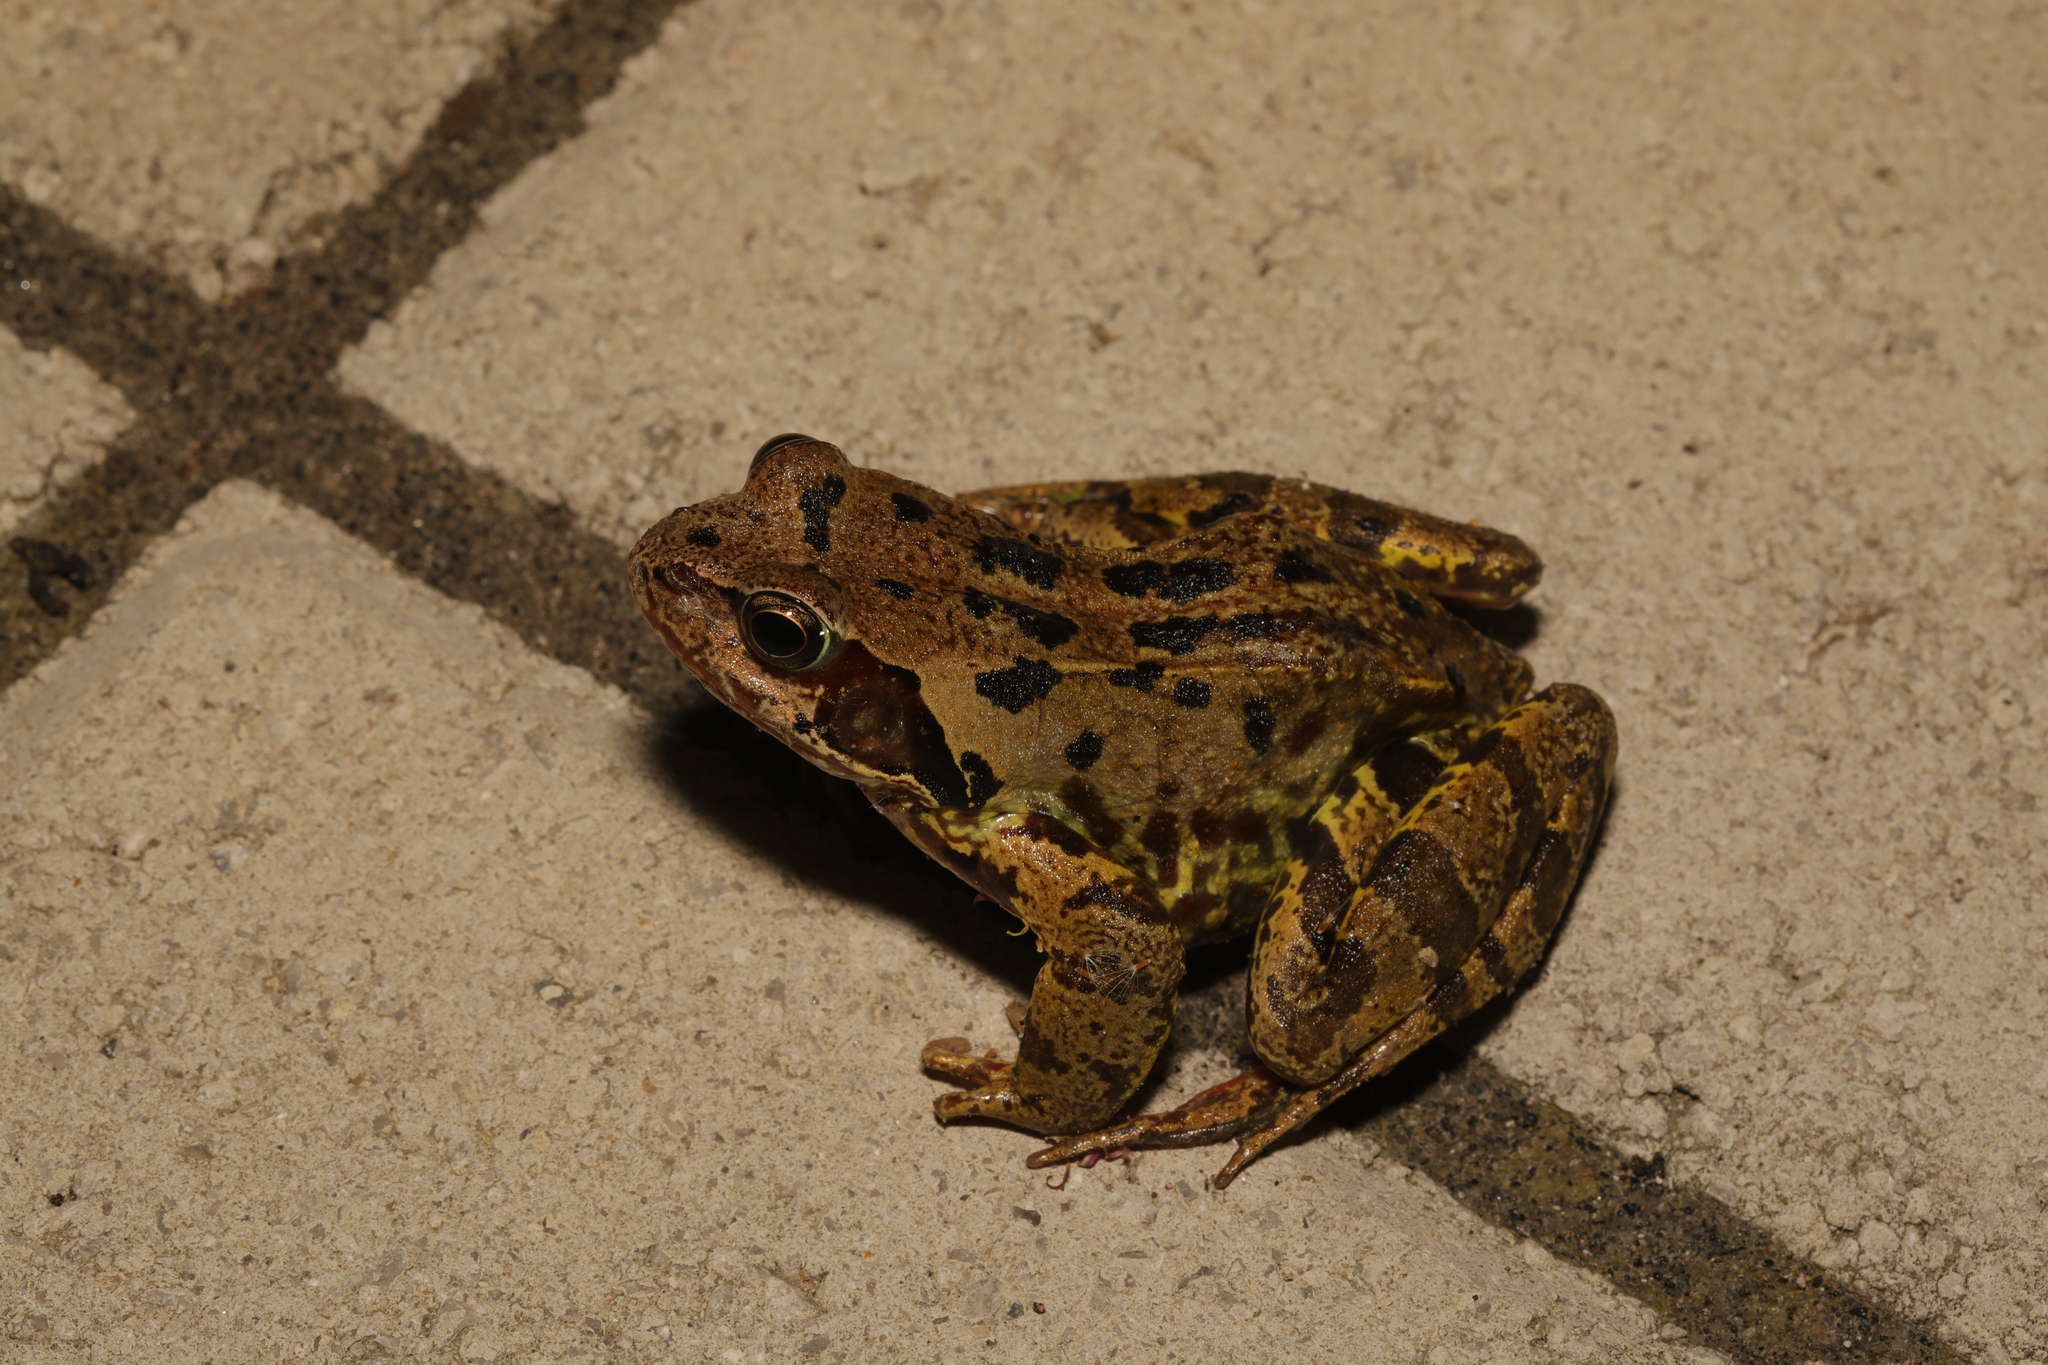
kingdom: Animalia
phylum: Chordata
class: Amphibia
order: Anura
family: Ranidae
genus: Rana
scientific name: Rana temporaria
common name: Common frog
